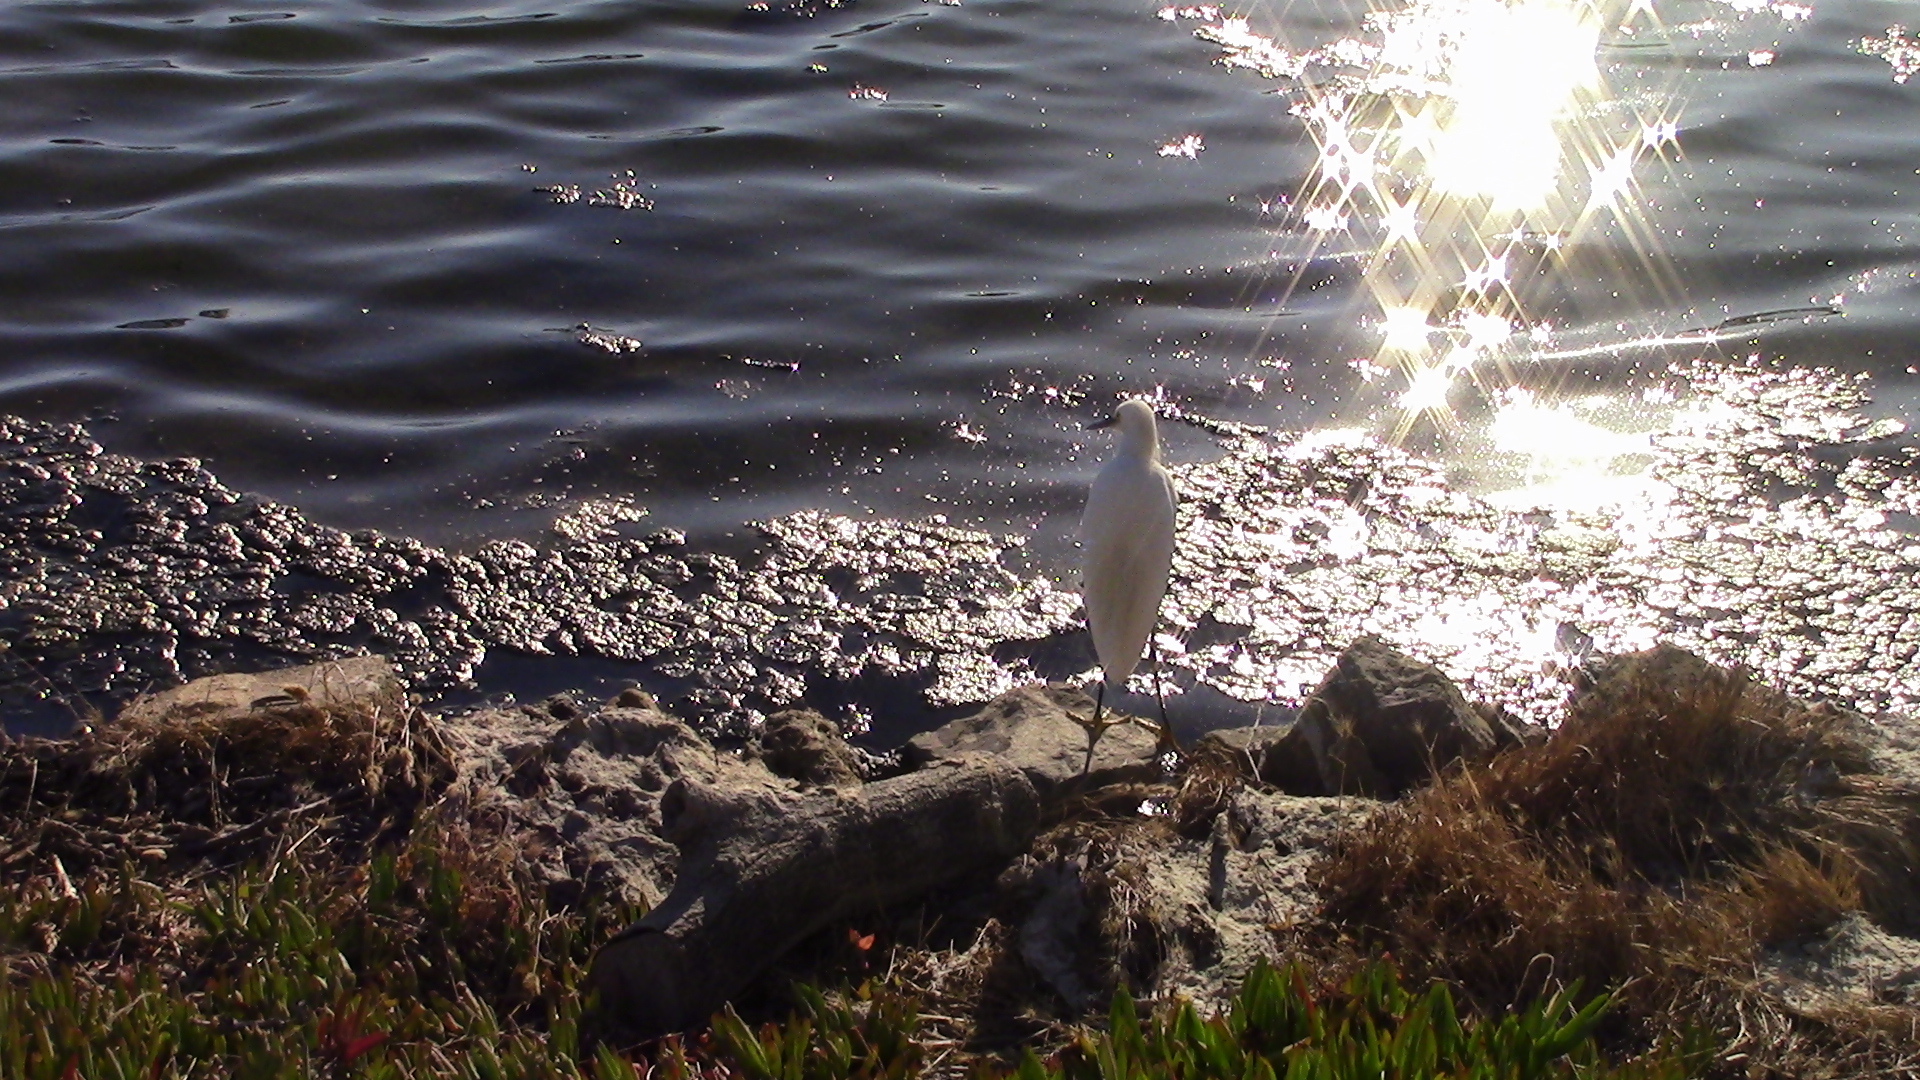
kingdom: Animalia
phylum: Chordata
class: Aves
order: Pelecaniformes
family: Ardeidae
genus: Egretta
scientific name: Egretta thula
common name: Snowy egret
